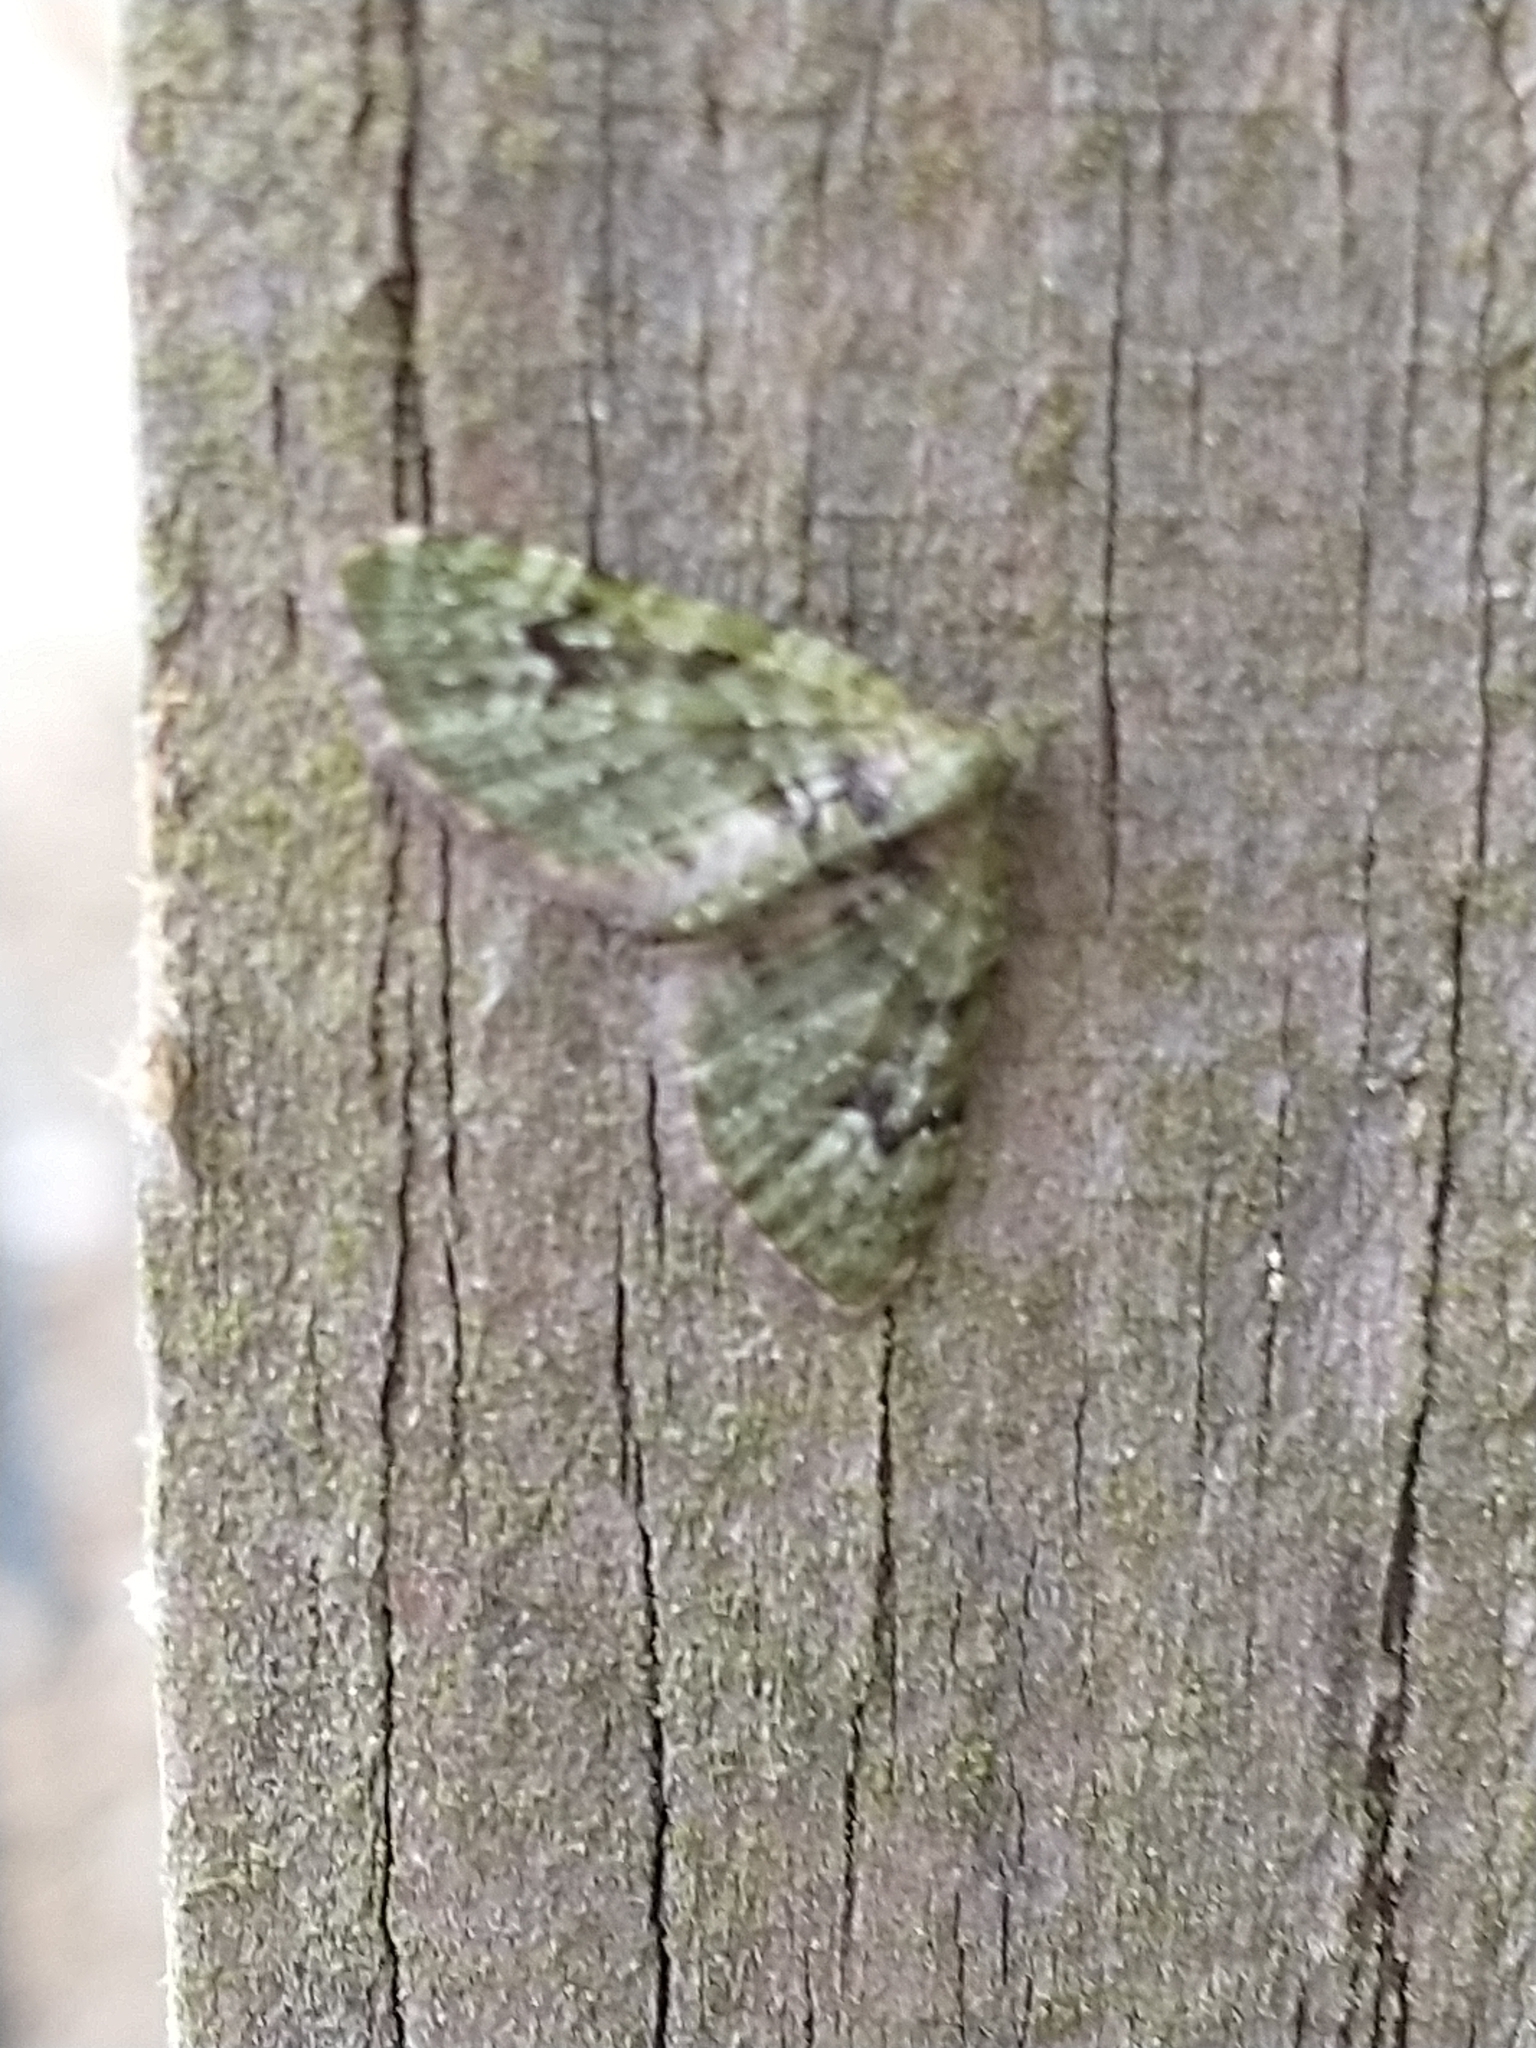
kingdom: Animalia
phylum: Arthropoda
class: Insecta
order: Lepidoptera
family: Geometridae
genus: Chloroclystis
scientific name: Chloroclystis v-ata
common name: V-pug
